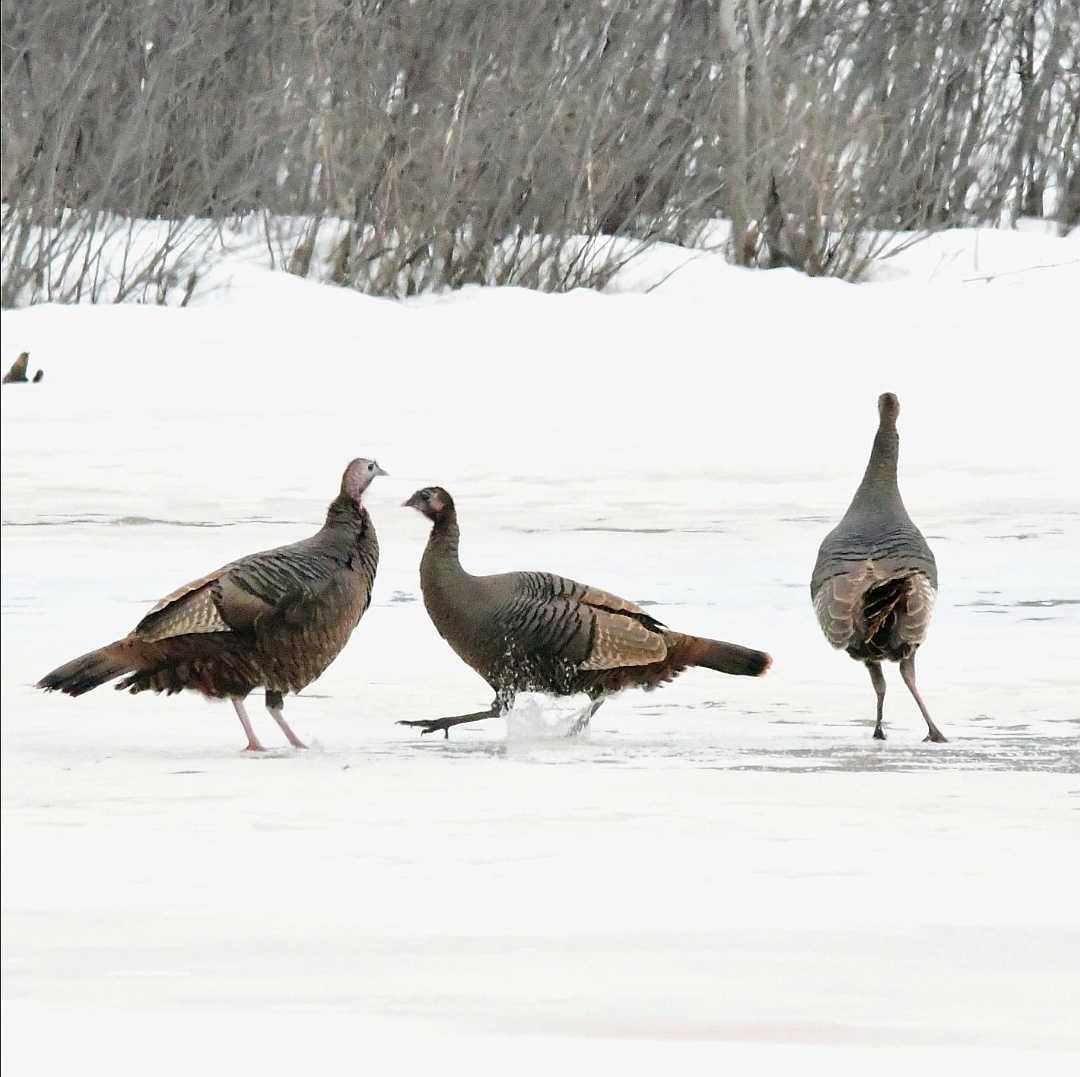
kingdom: Animalia
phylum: Chordata
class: Aves
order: Galliformes
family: Phasianidae
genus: Meleagris
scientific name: Meleagris gallopavo
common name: Wild turkey
